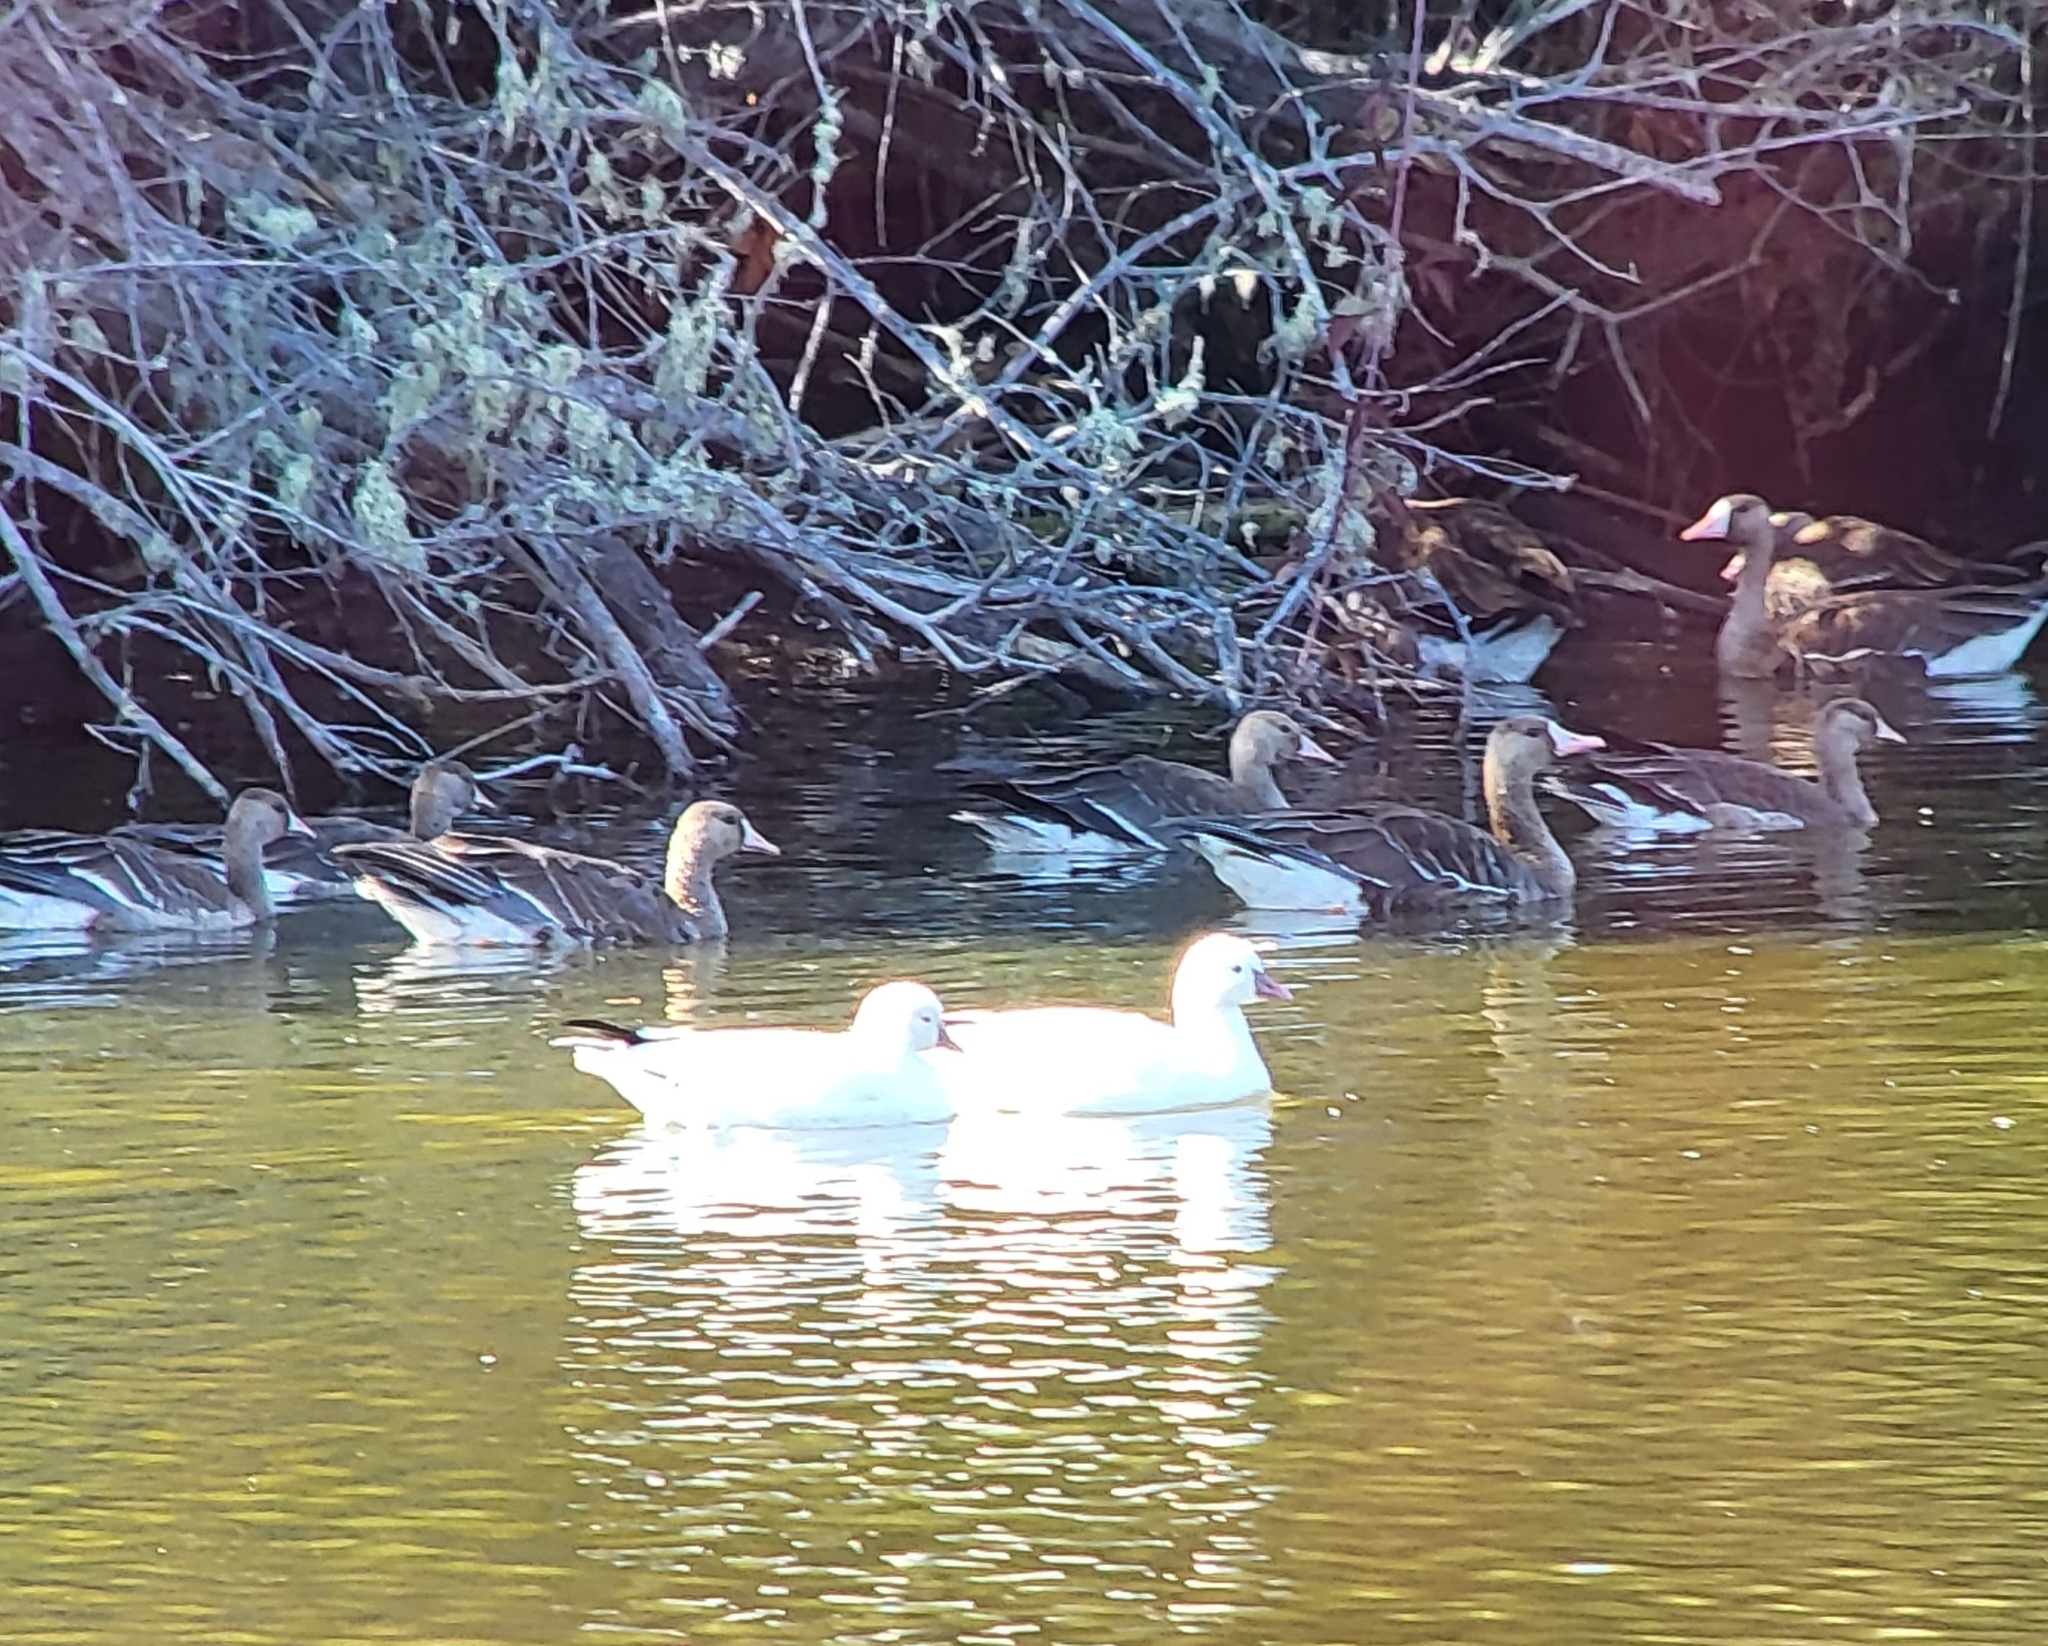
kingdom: Animalia
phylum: Chordata
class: Aves
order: Anseriformes
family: Anatidae
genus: Anser
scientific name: Anser rossii
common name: Ross's goose
